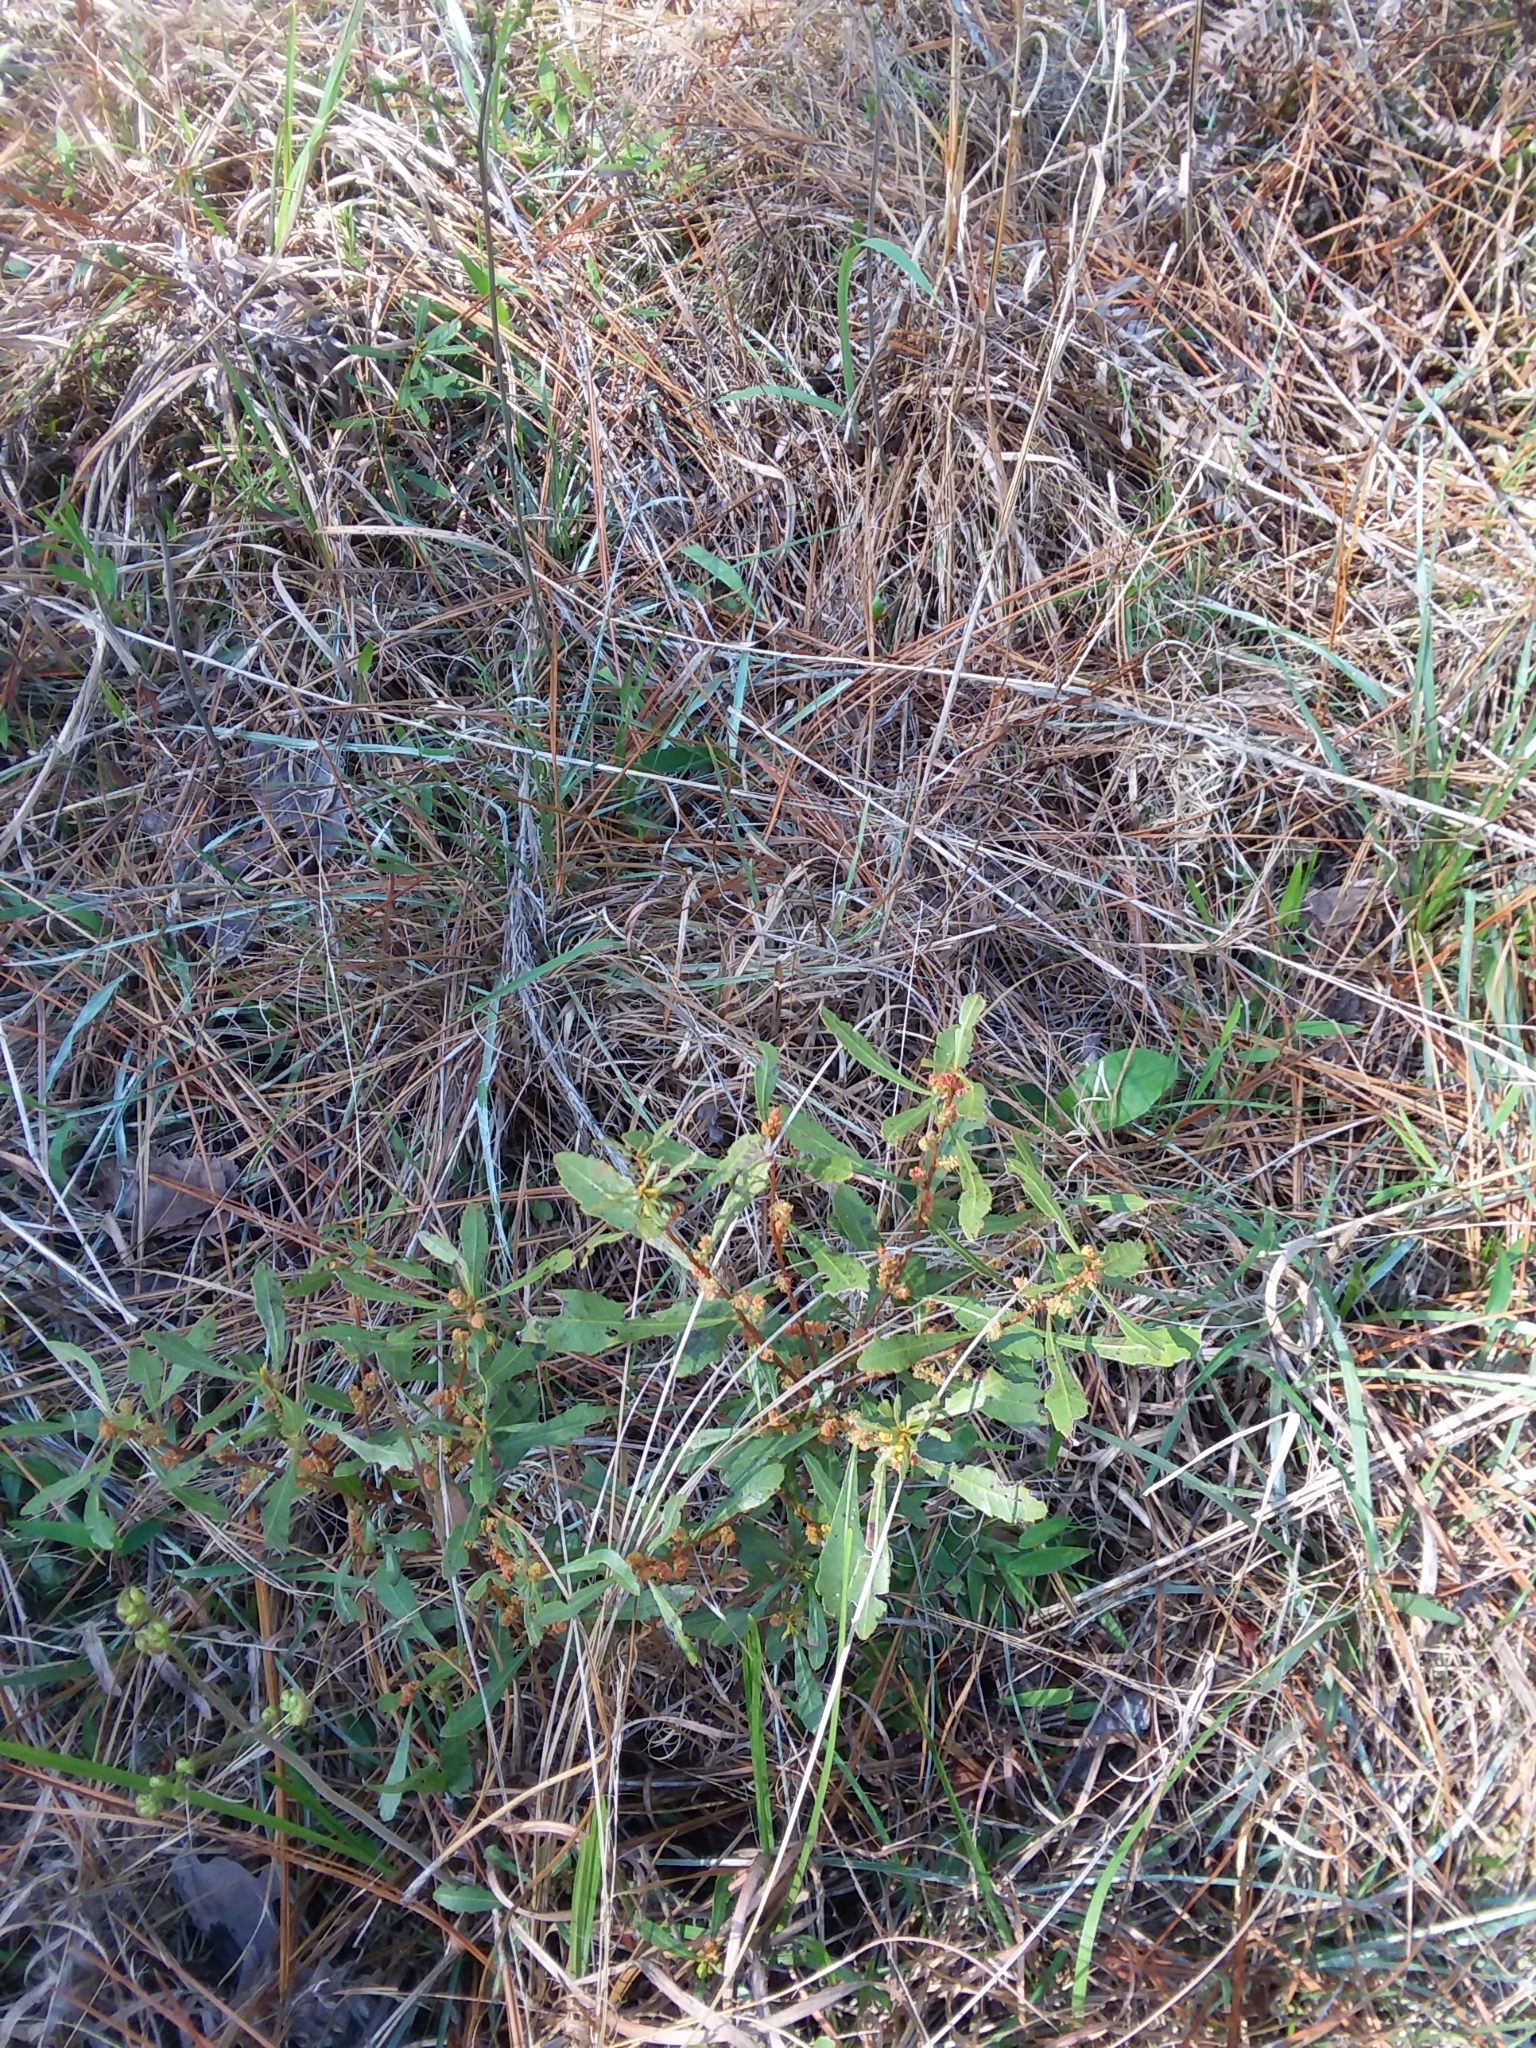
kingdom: Plantae
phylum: Tracheophyta
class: Magnoliopsida
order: Fagales
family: Myricaceae
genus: Morella
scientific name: Morella cerifera
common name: Wax myrtle
